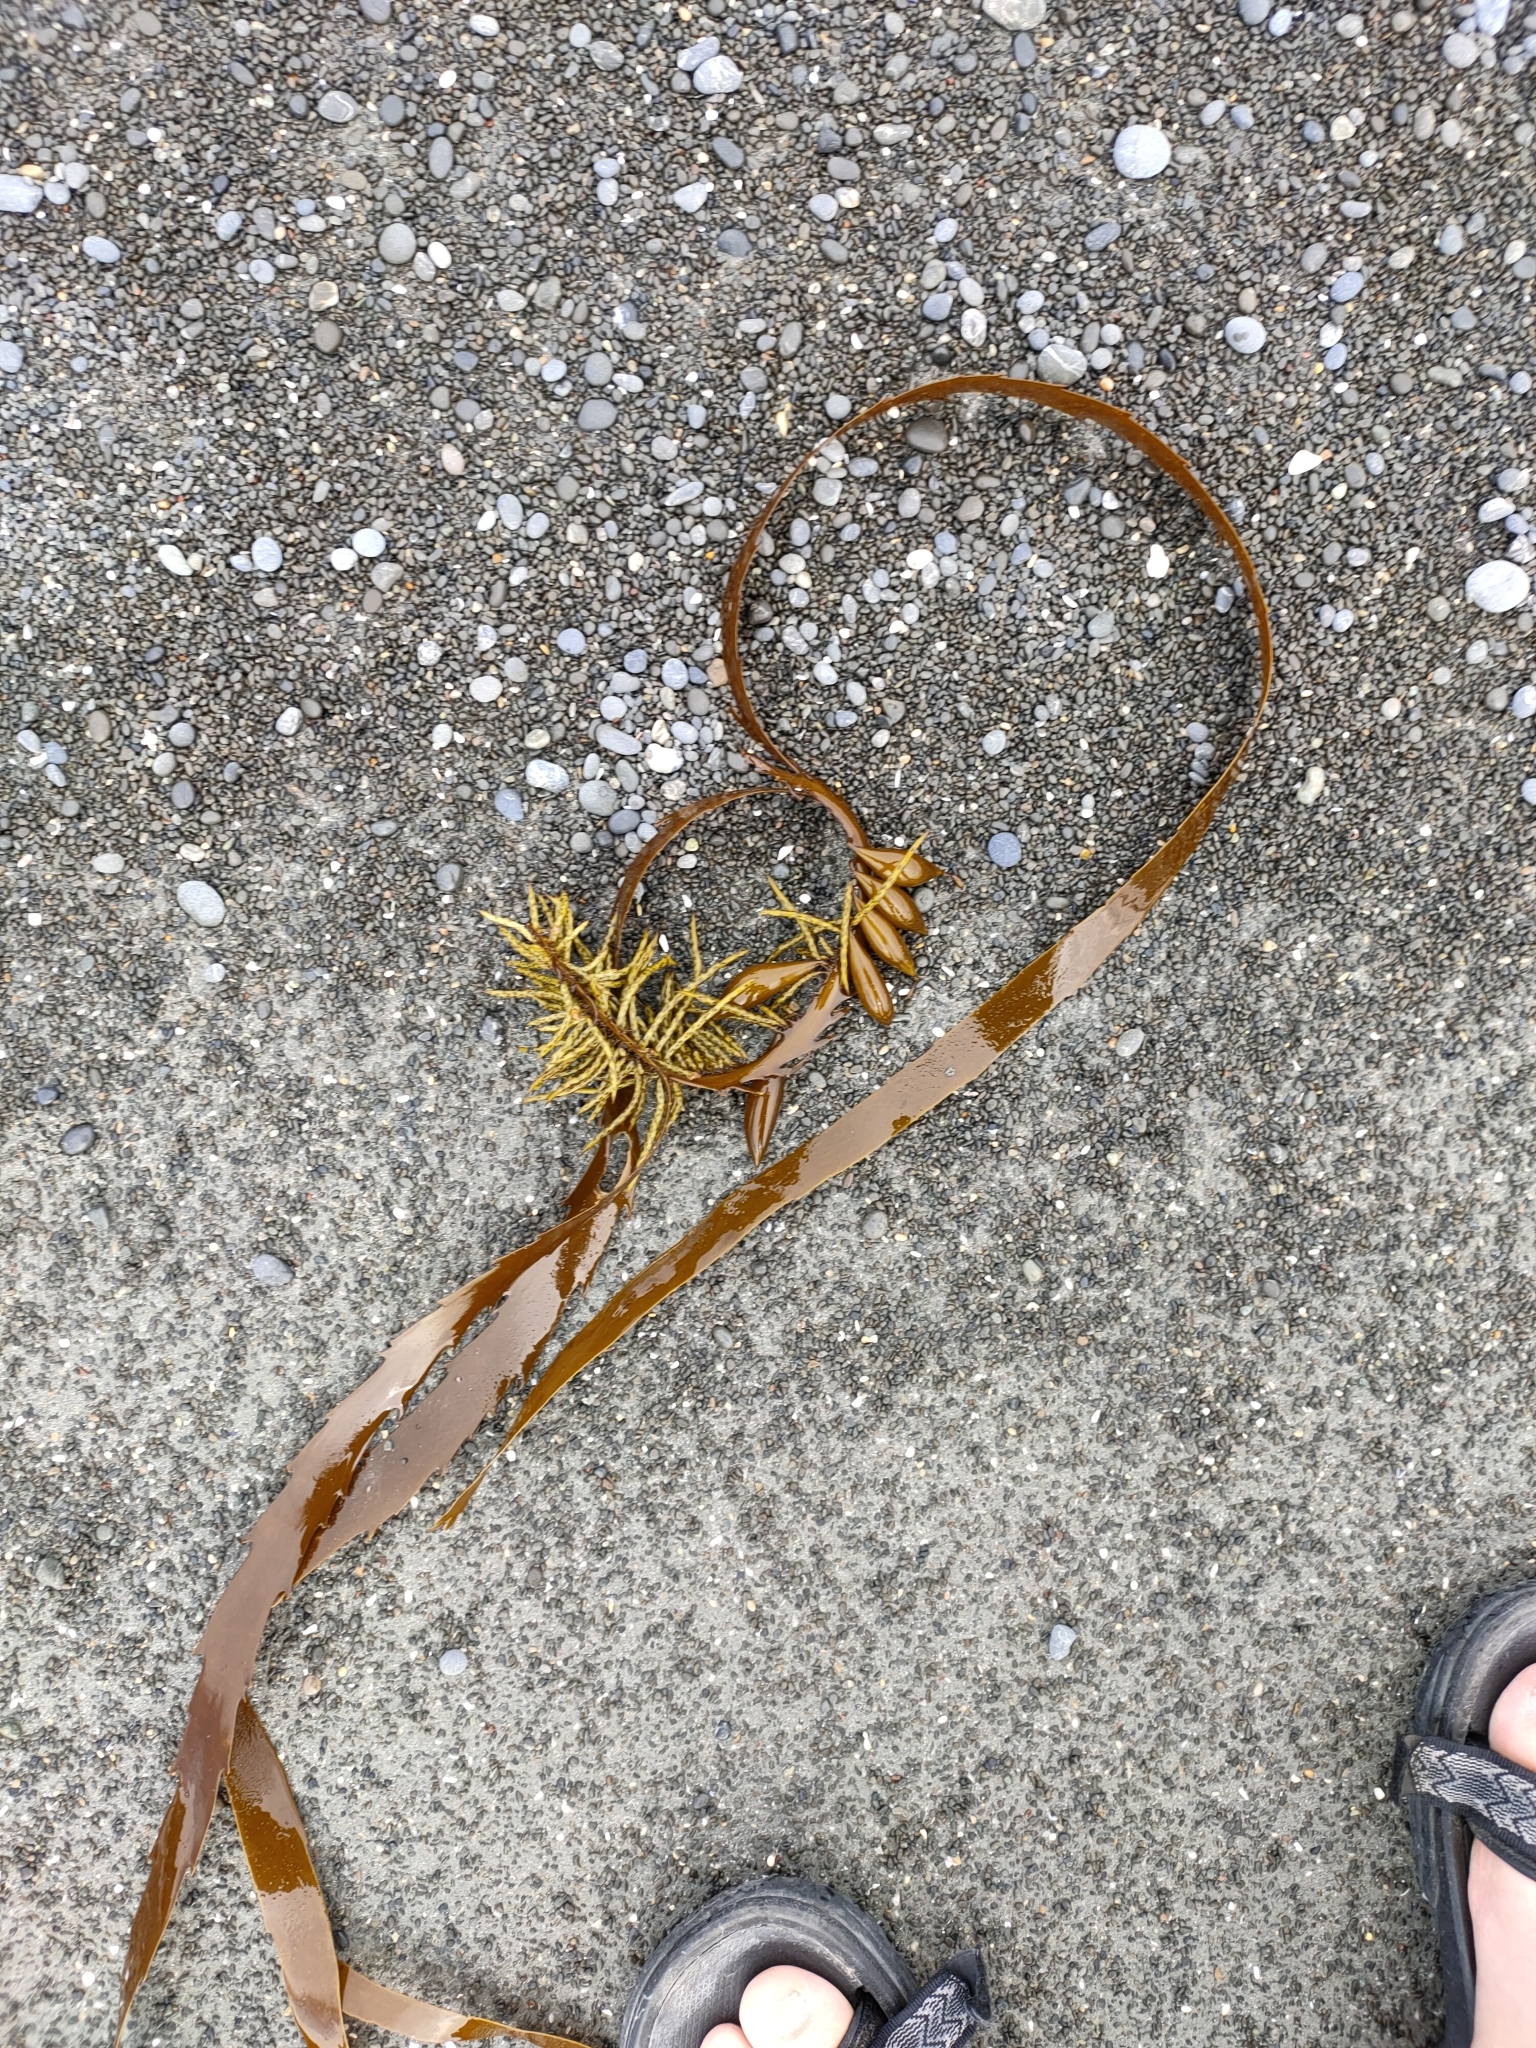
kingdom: Chromista
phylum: Ochrophyta
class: Phaeophyceae
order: Fucales
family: Seirococcaceae
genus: Marginariella
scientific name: Marginariella boryana
